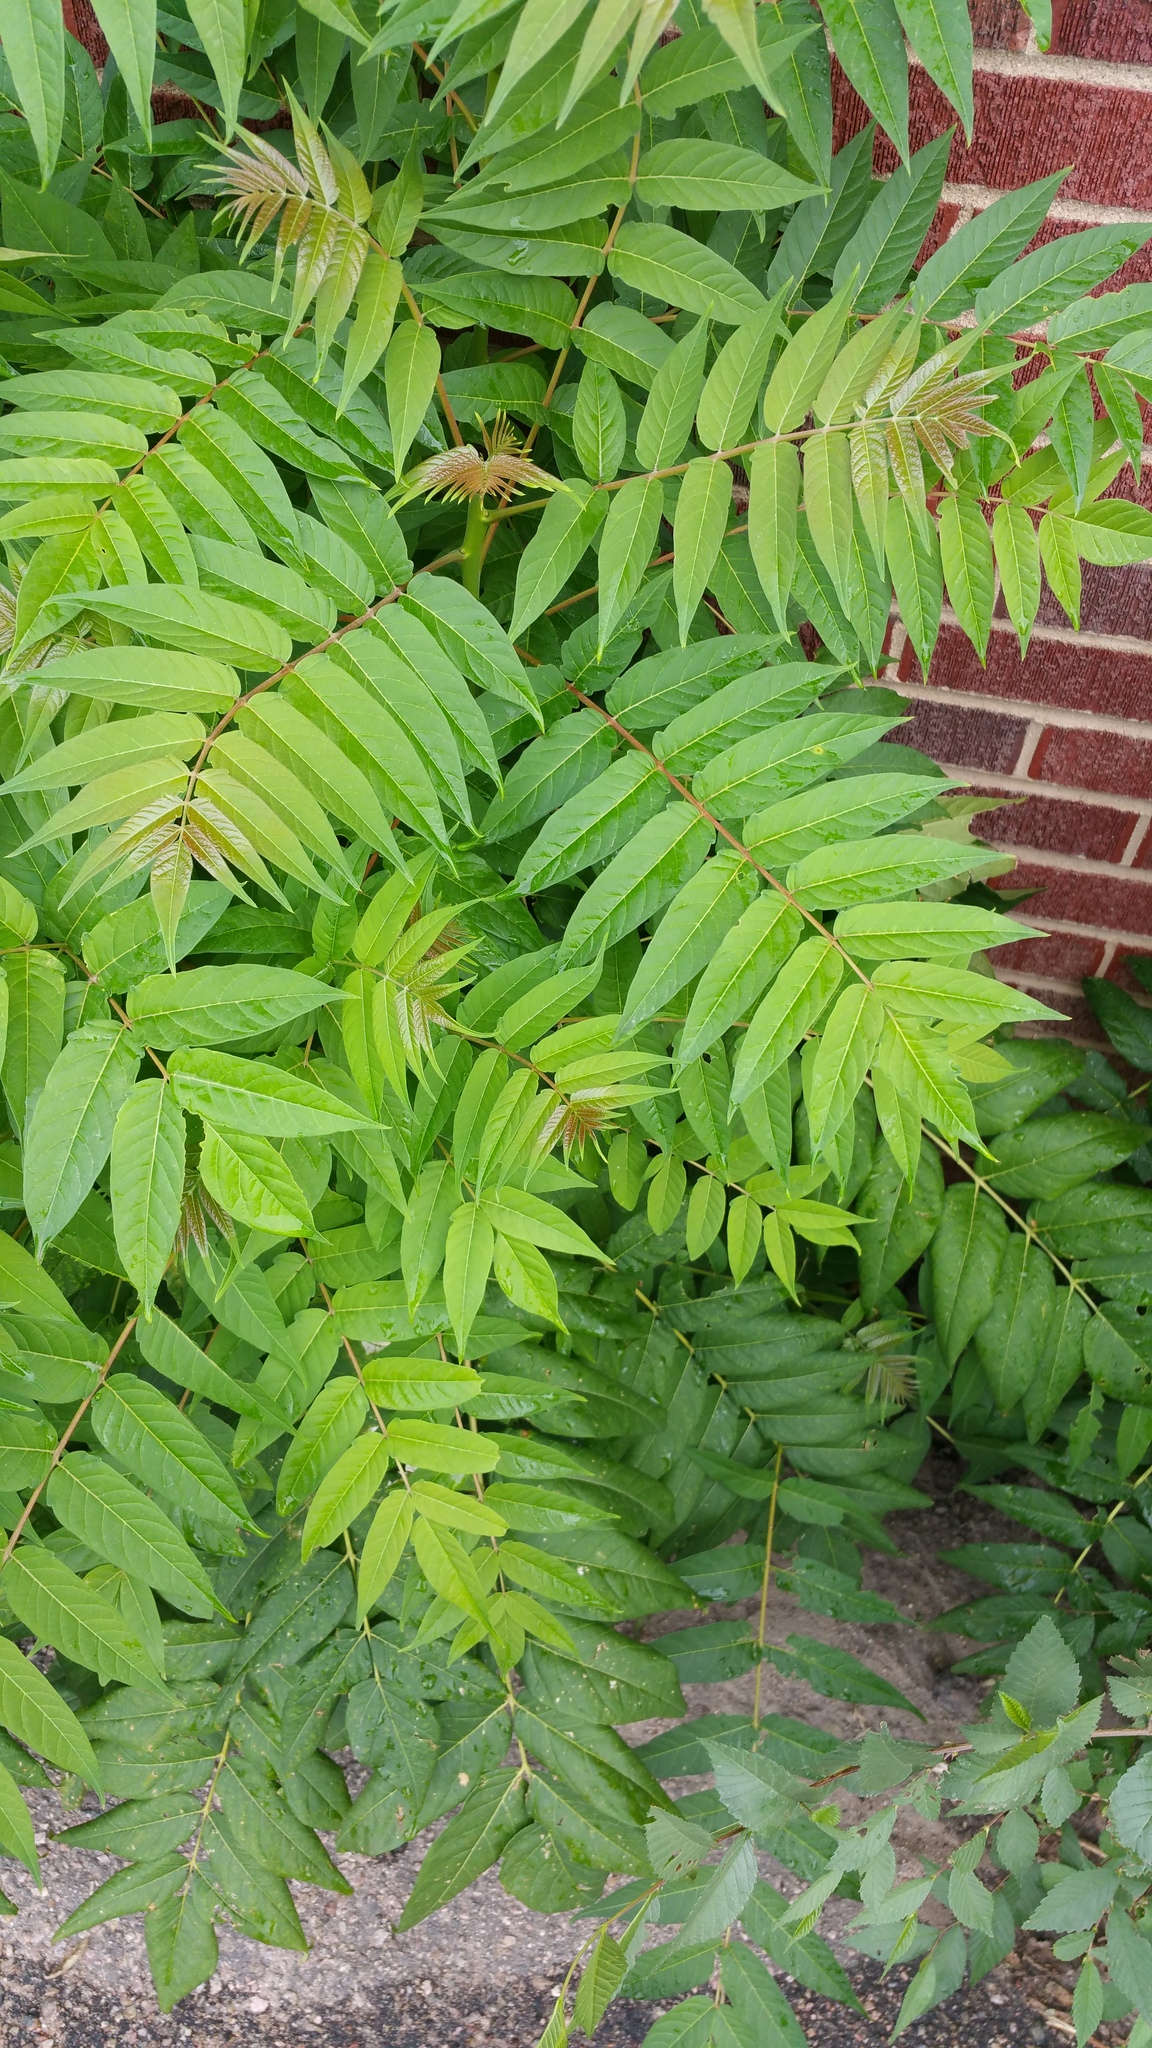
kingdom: Plantae
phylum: Tracheophyta
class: Magnoliopsida
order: Sapindales
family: Simaroubaceae
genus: Ailanthus
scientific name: Ailanthus altissima
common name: Tree-of-heaven
